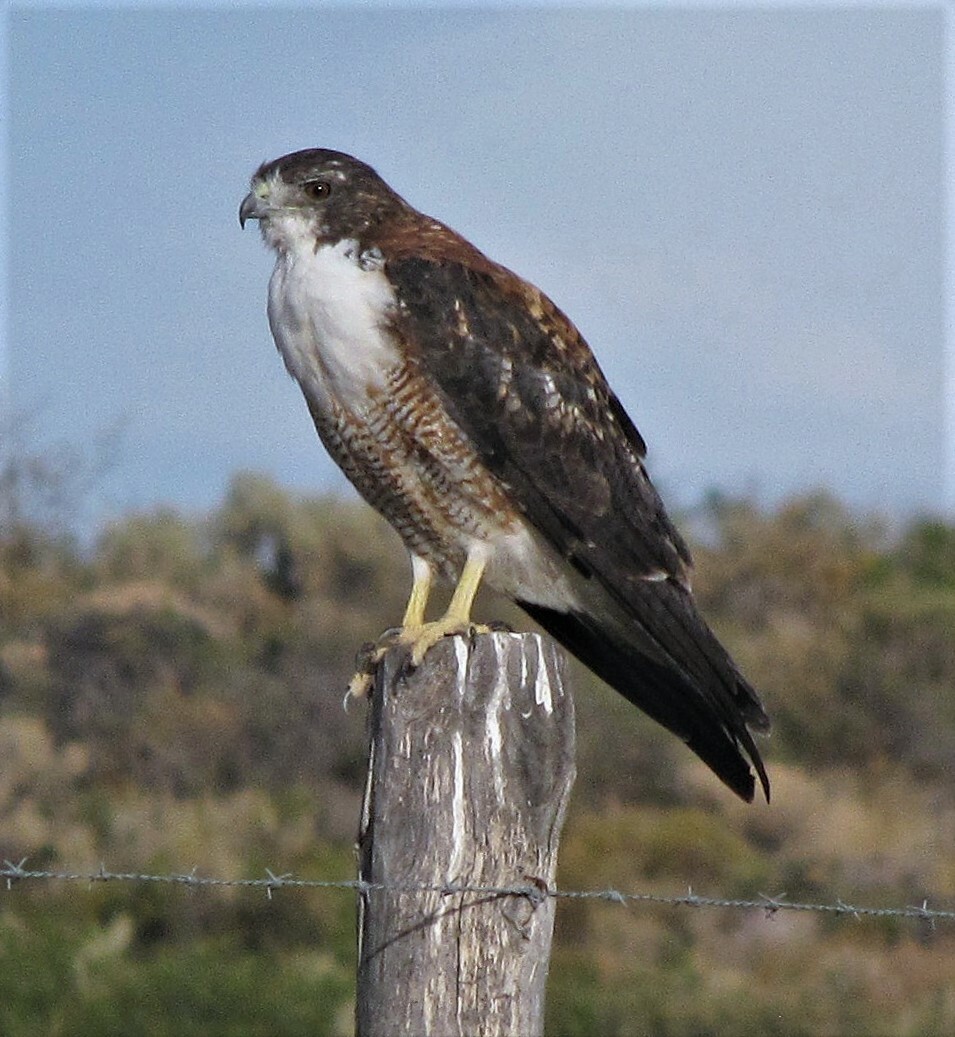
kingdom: Animalia
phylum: Chordata
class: Aves
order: Accipitriformes
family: Accipitridae
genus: Buteo
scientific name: Buteo polyosoma
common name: Variable hawk
